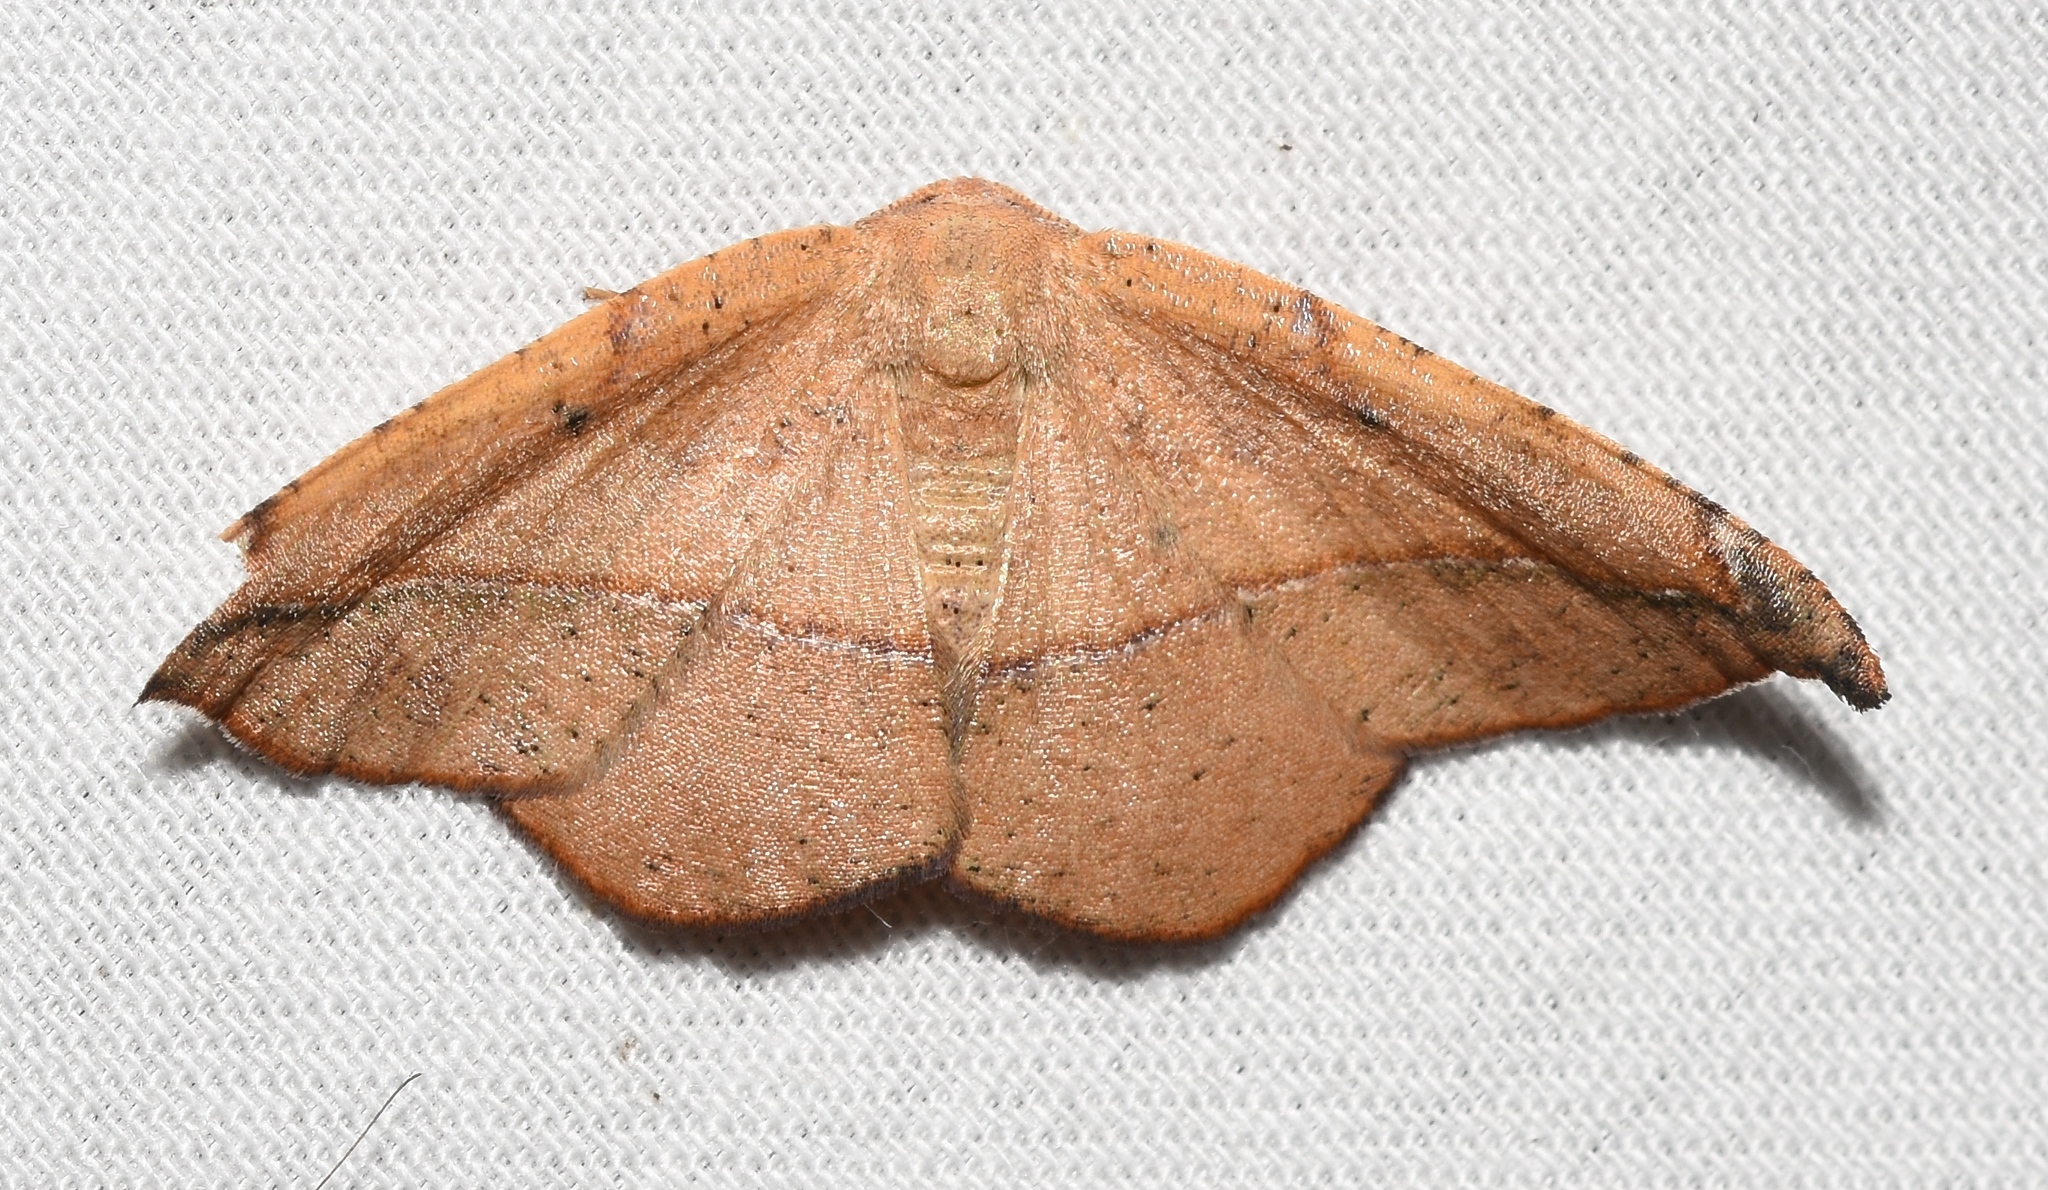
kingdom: Animalia
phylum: Arthropoda
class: Insecta
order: Lepidoptera
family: Geometridae
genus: Patalene
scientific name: Patalene olyzonaria
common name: Juniper geometer moth
